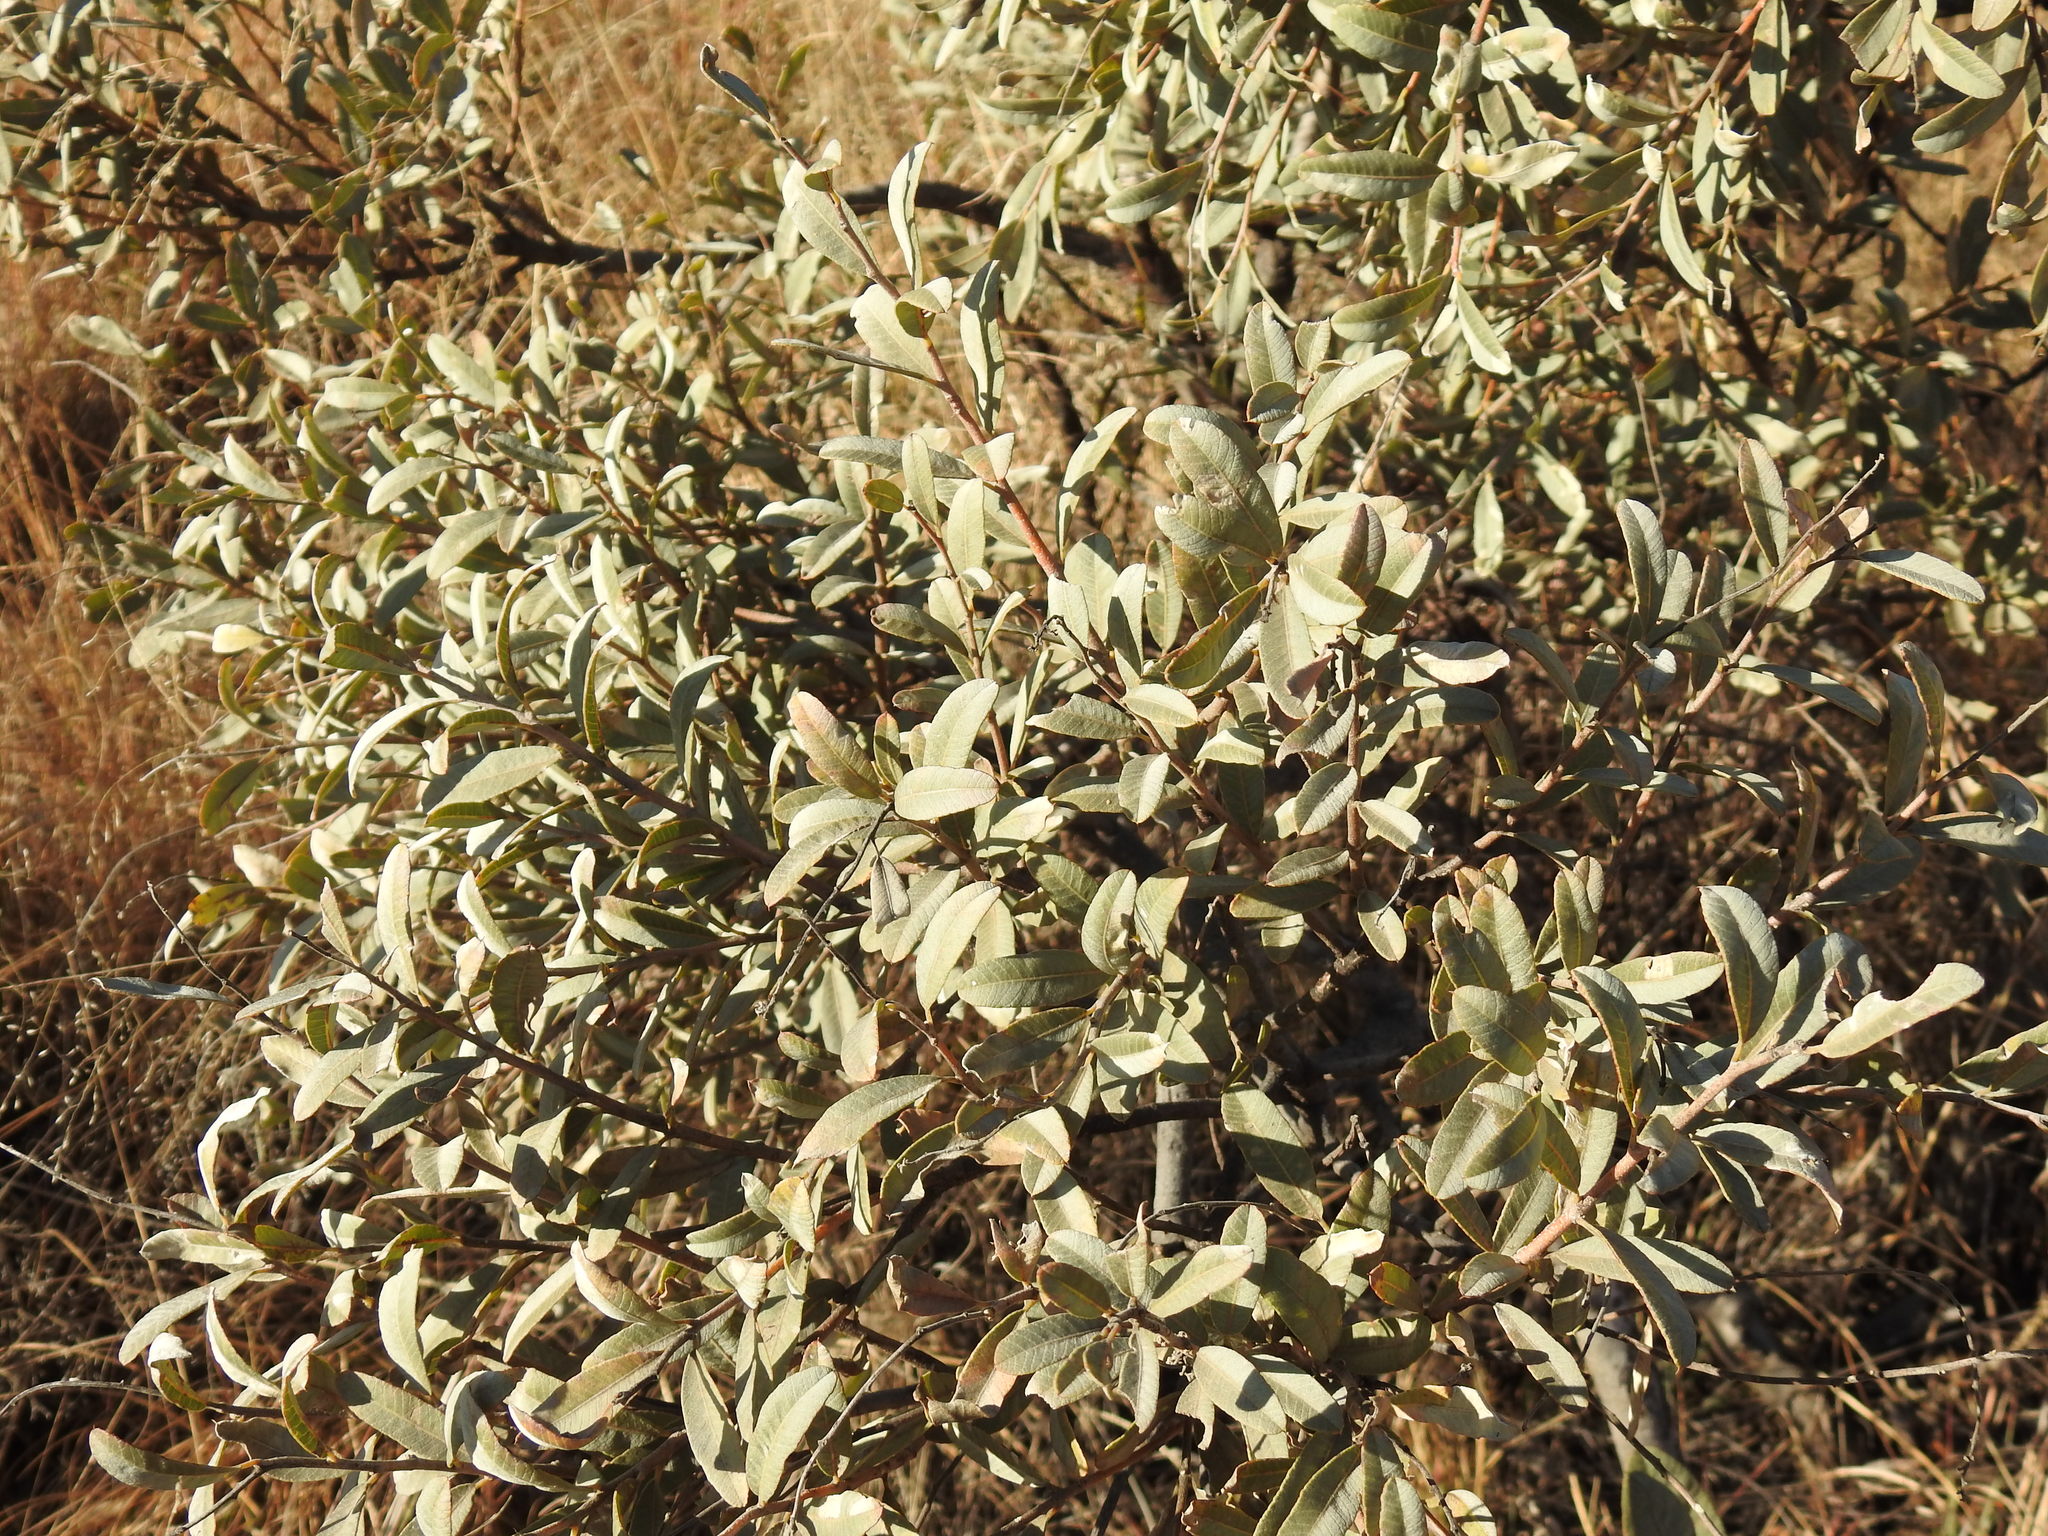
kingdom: Plantae
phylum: Tracheophyta
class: Magnoliopsida
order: Sapindales
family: Anacardiaceae
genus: Ozoroa
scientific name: Ozoroa paniculosa
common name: Bushveld ozoroa
